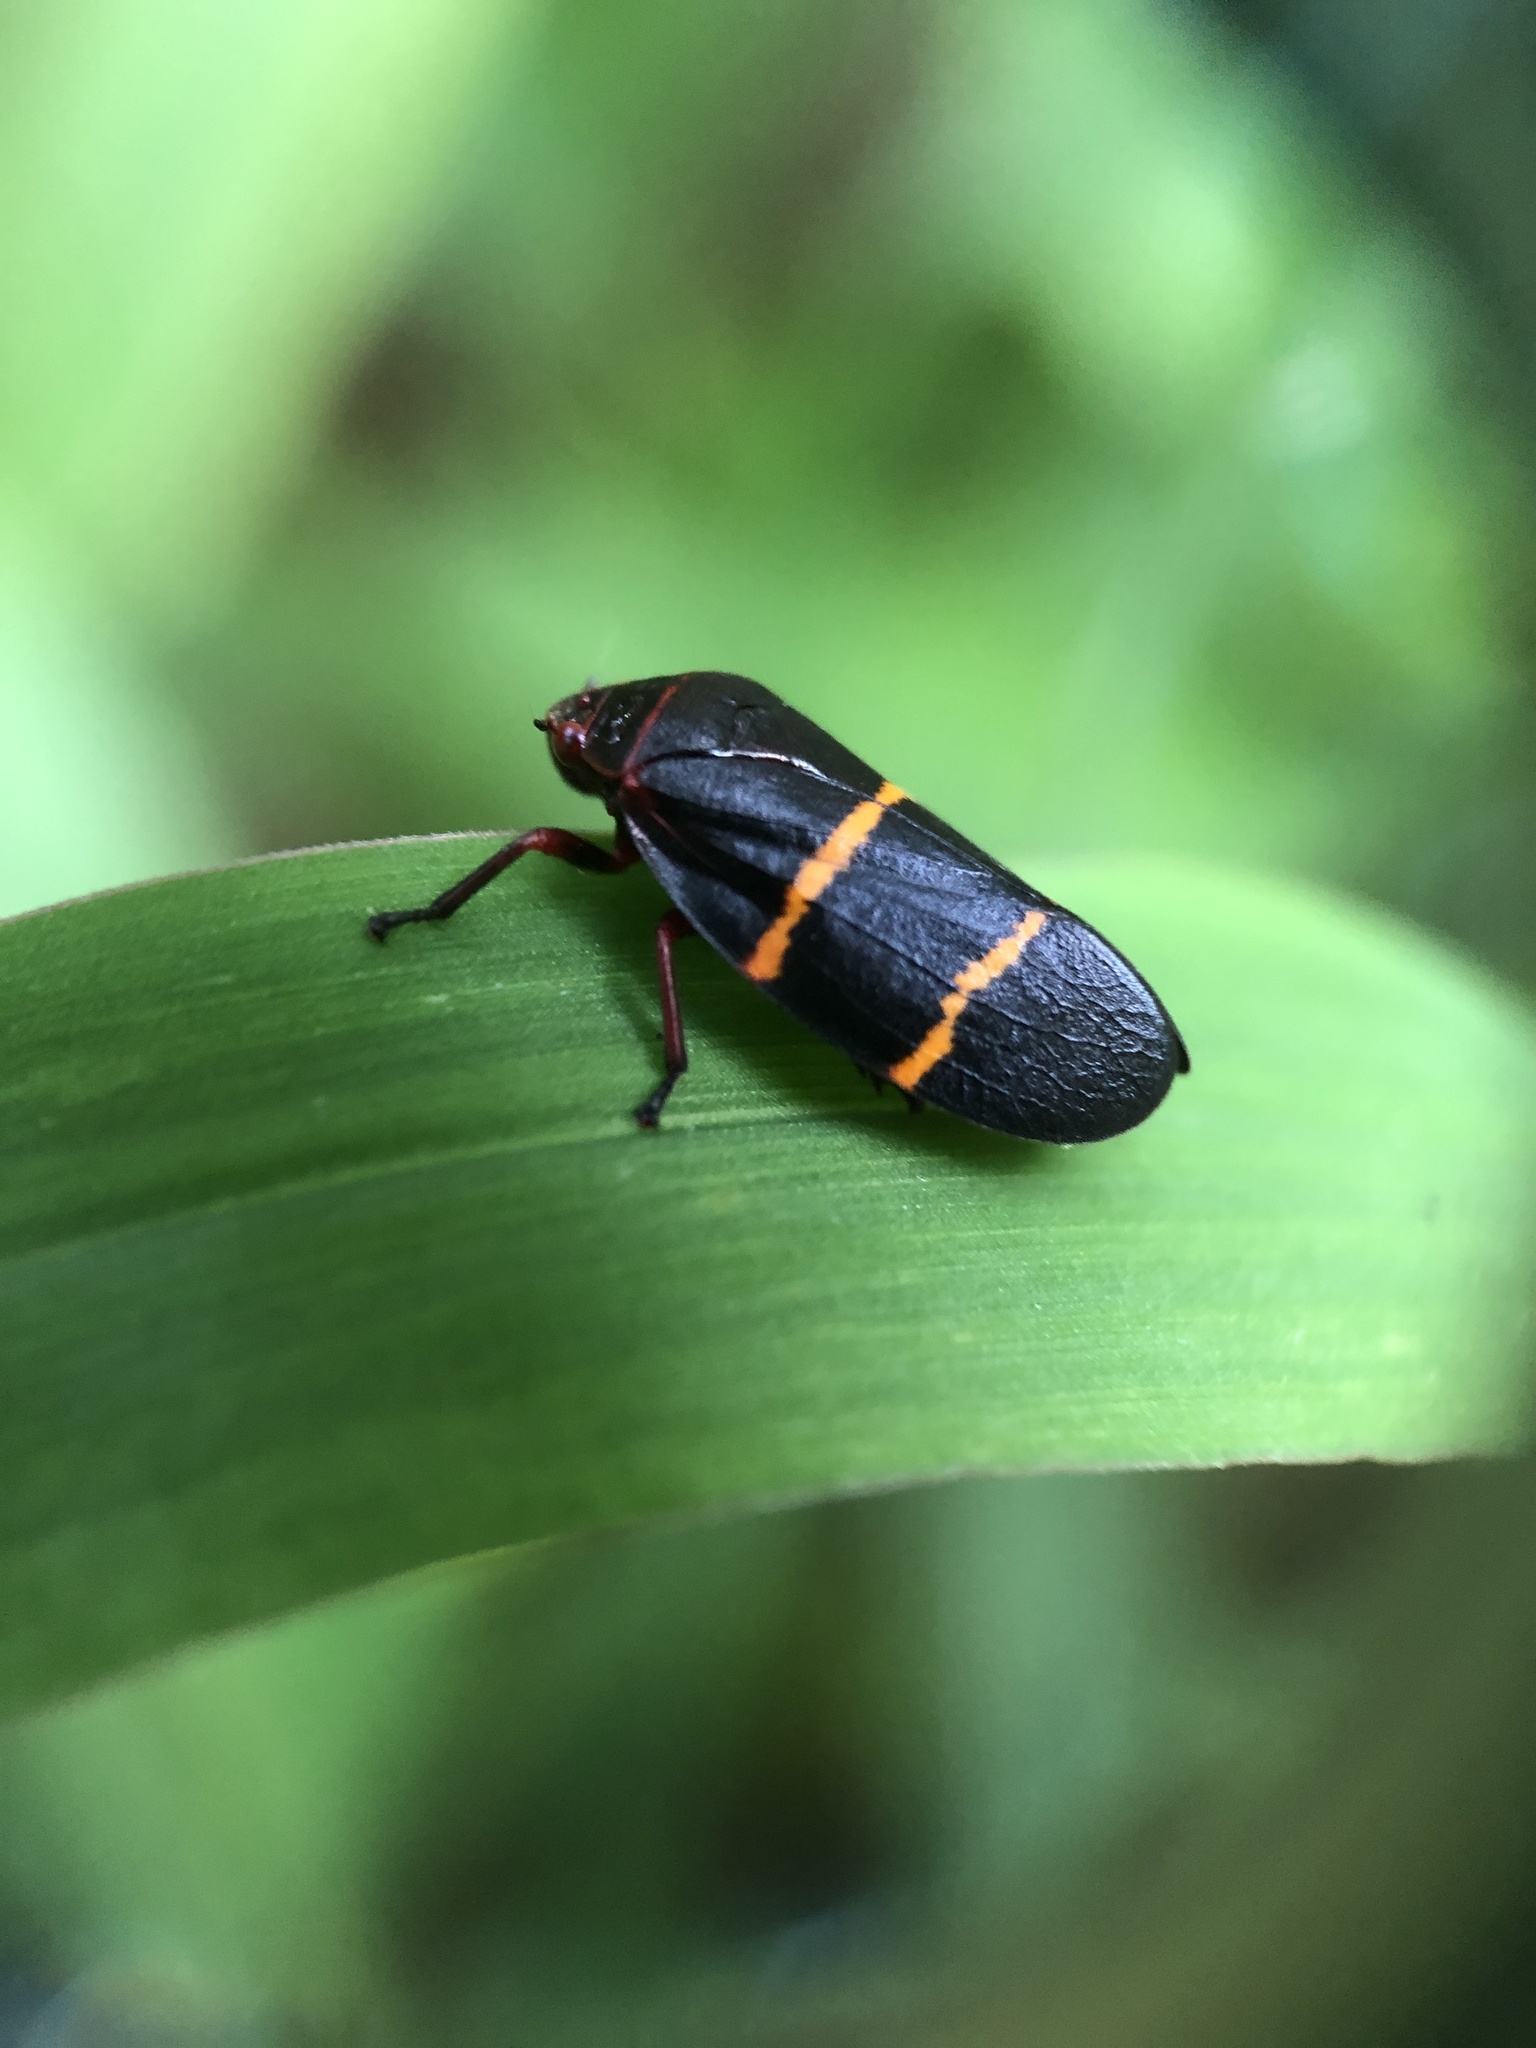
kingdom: Animalia
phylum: Arthropoda
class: Insecta
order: Hemiptera
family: Cercopidae
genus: Prosapia
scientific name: Prosapia bicincta
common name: Twolined spittlebug
